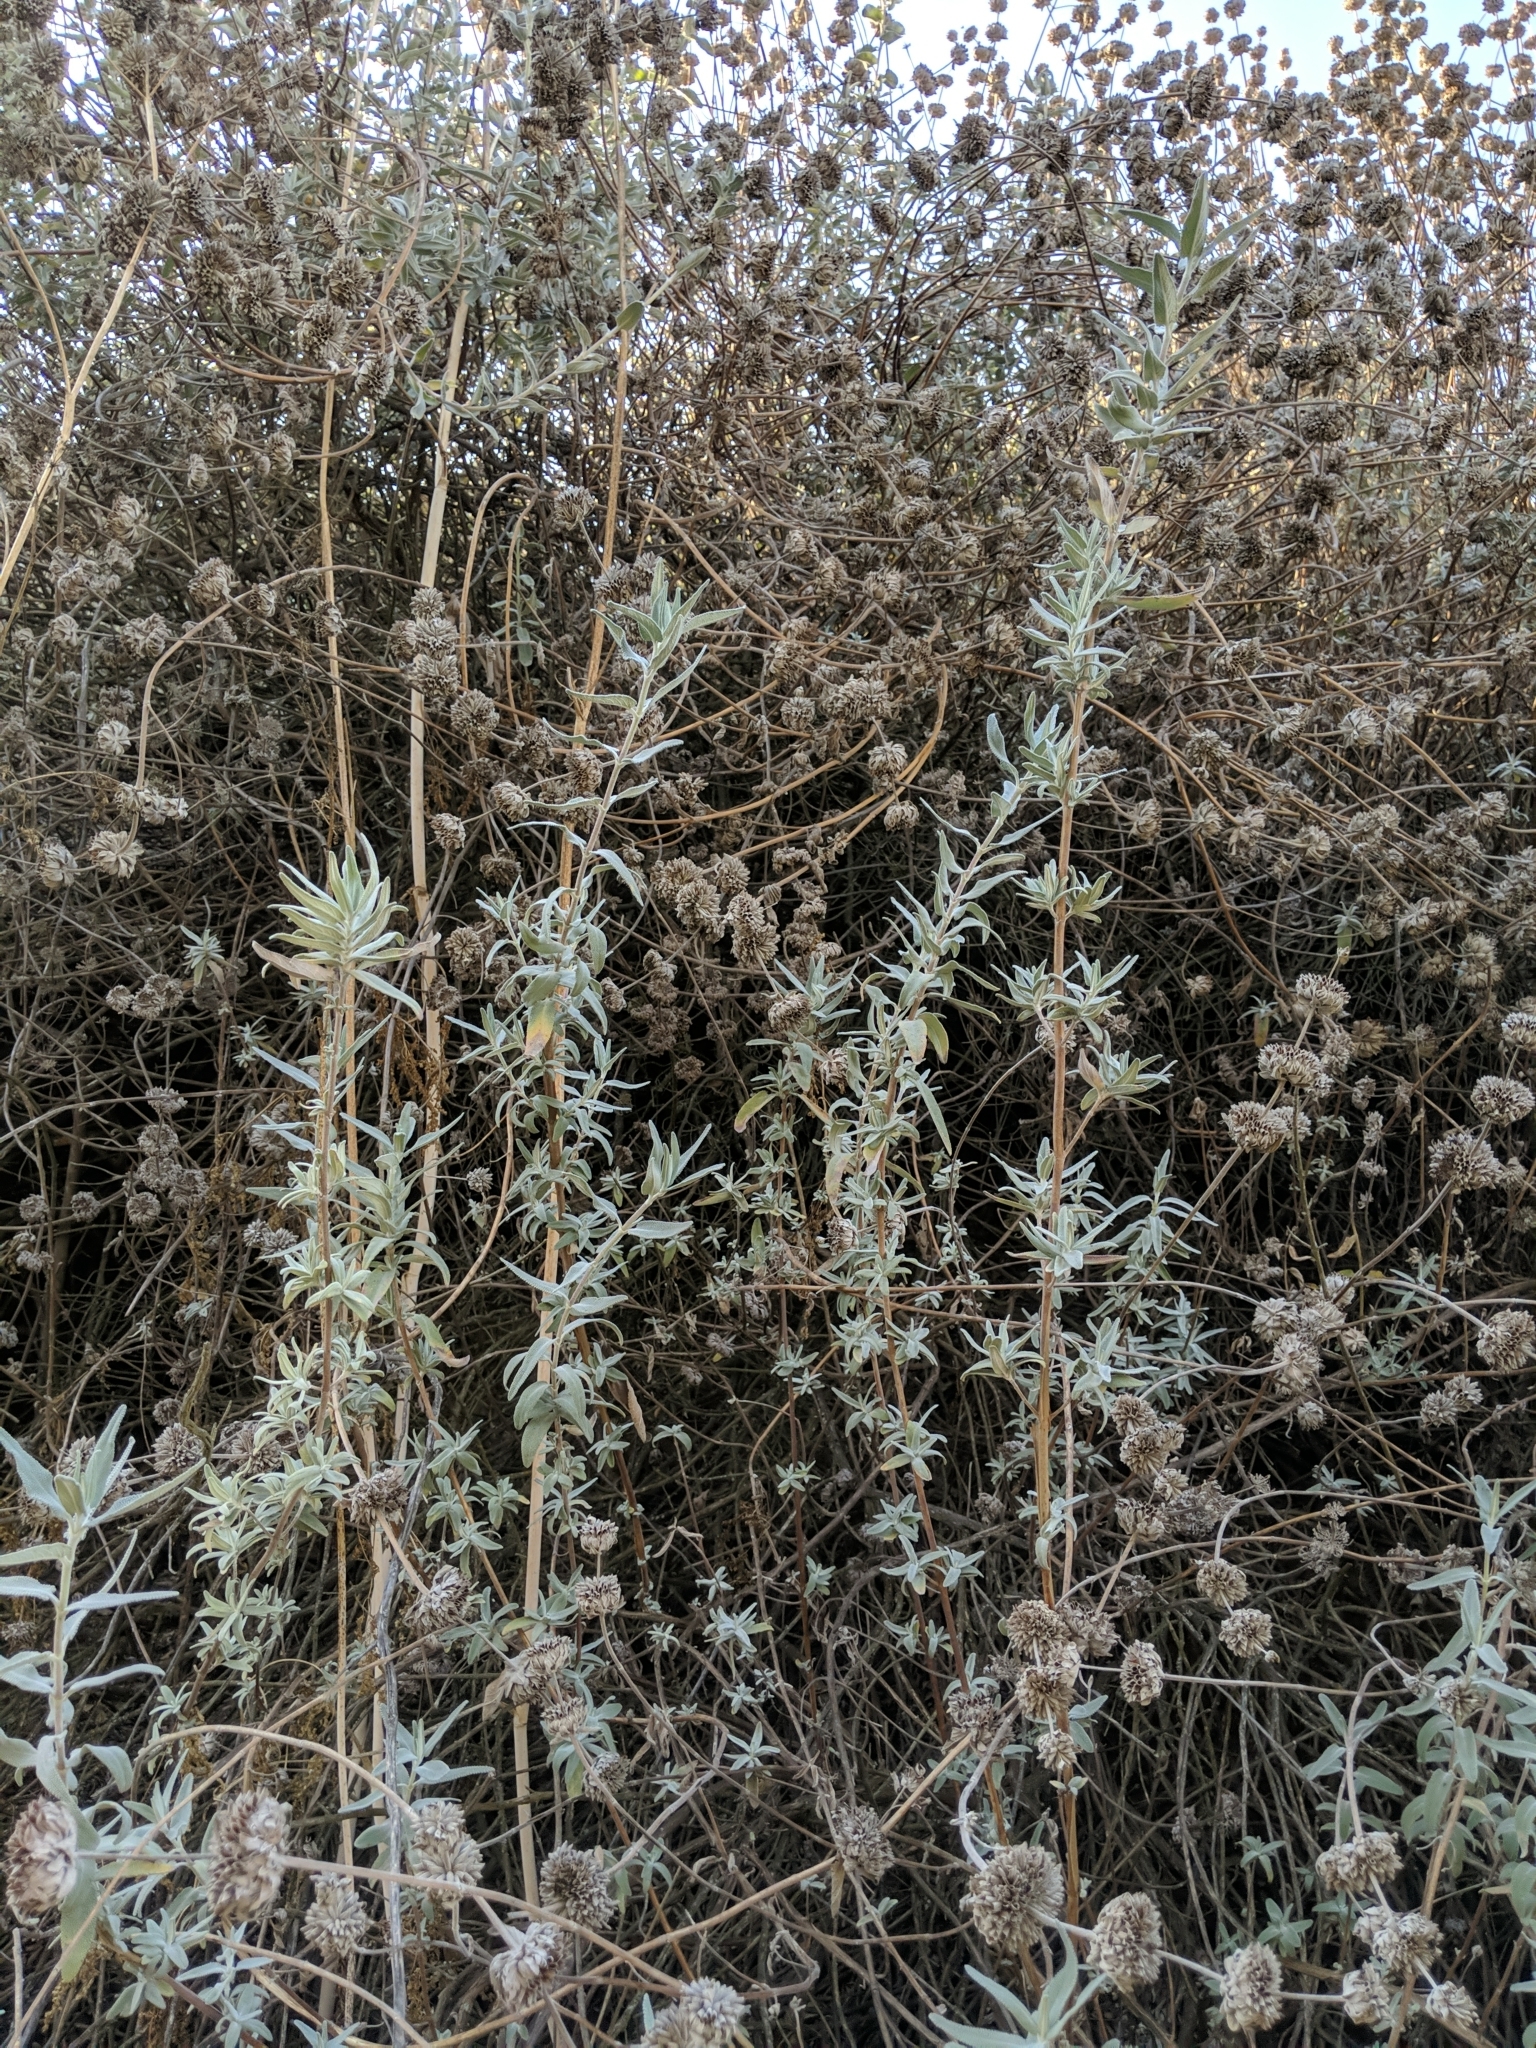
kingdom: Plantae
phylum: Tracheophyta
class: Magnoliopsida
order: Lamiales
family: Lamiaceae
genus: Salvia
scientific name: Salvia leucophylla
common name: Purple sage
